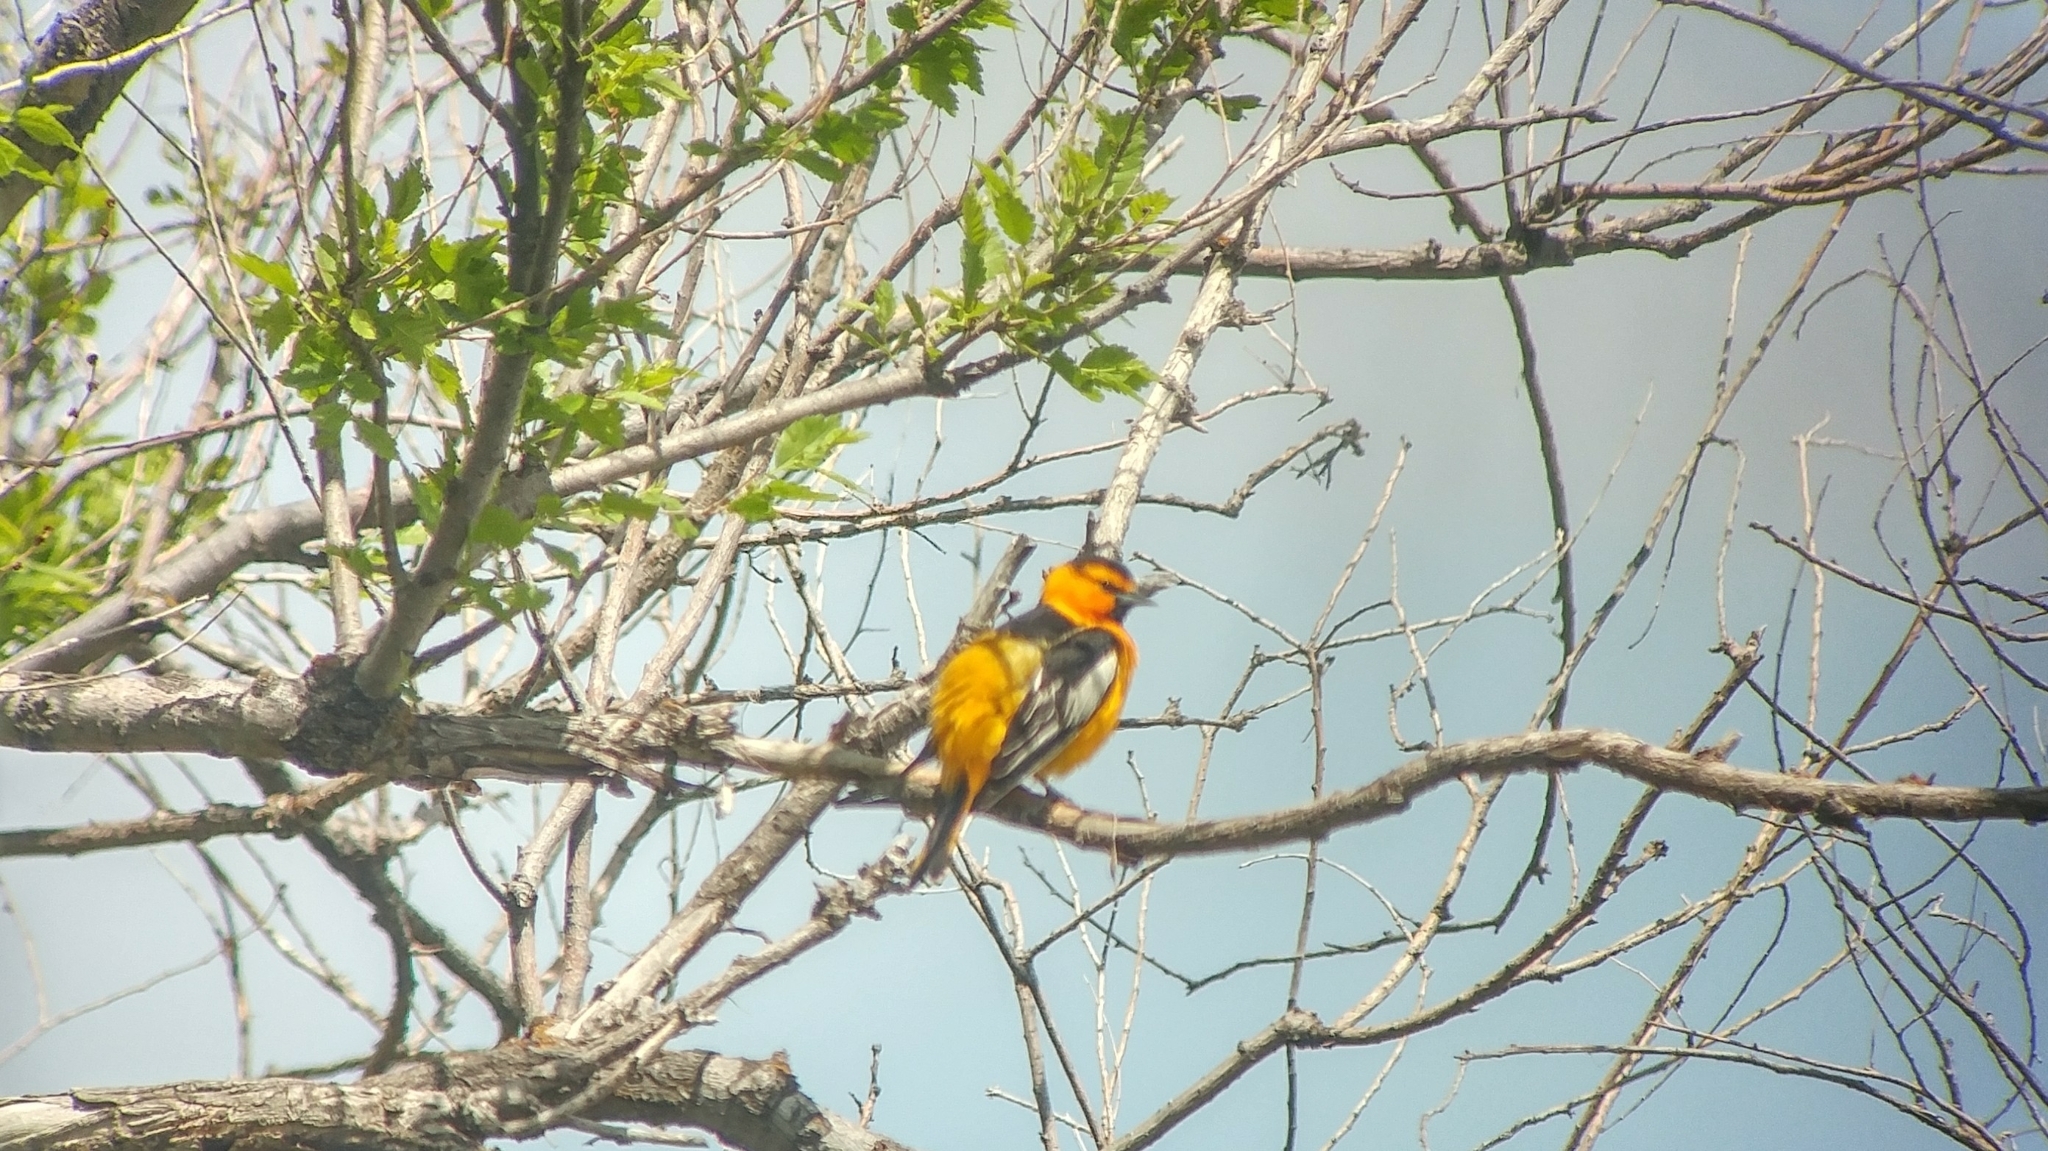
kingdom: Animalia
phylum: Chordata
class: Aves
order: Passeriformes
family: Icteridae
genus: Icterus
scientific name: Icterus bullockii
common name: Bullock's oriole
